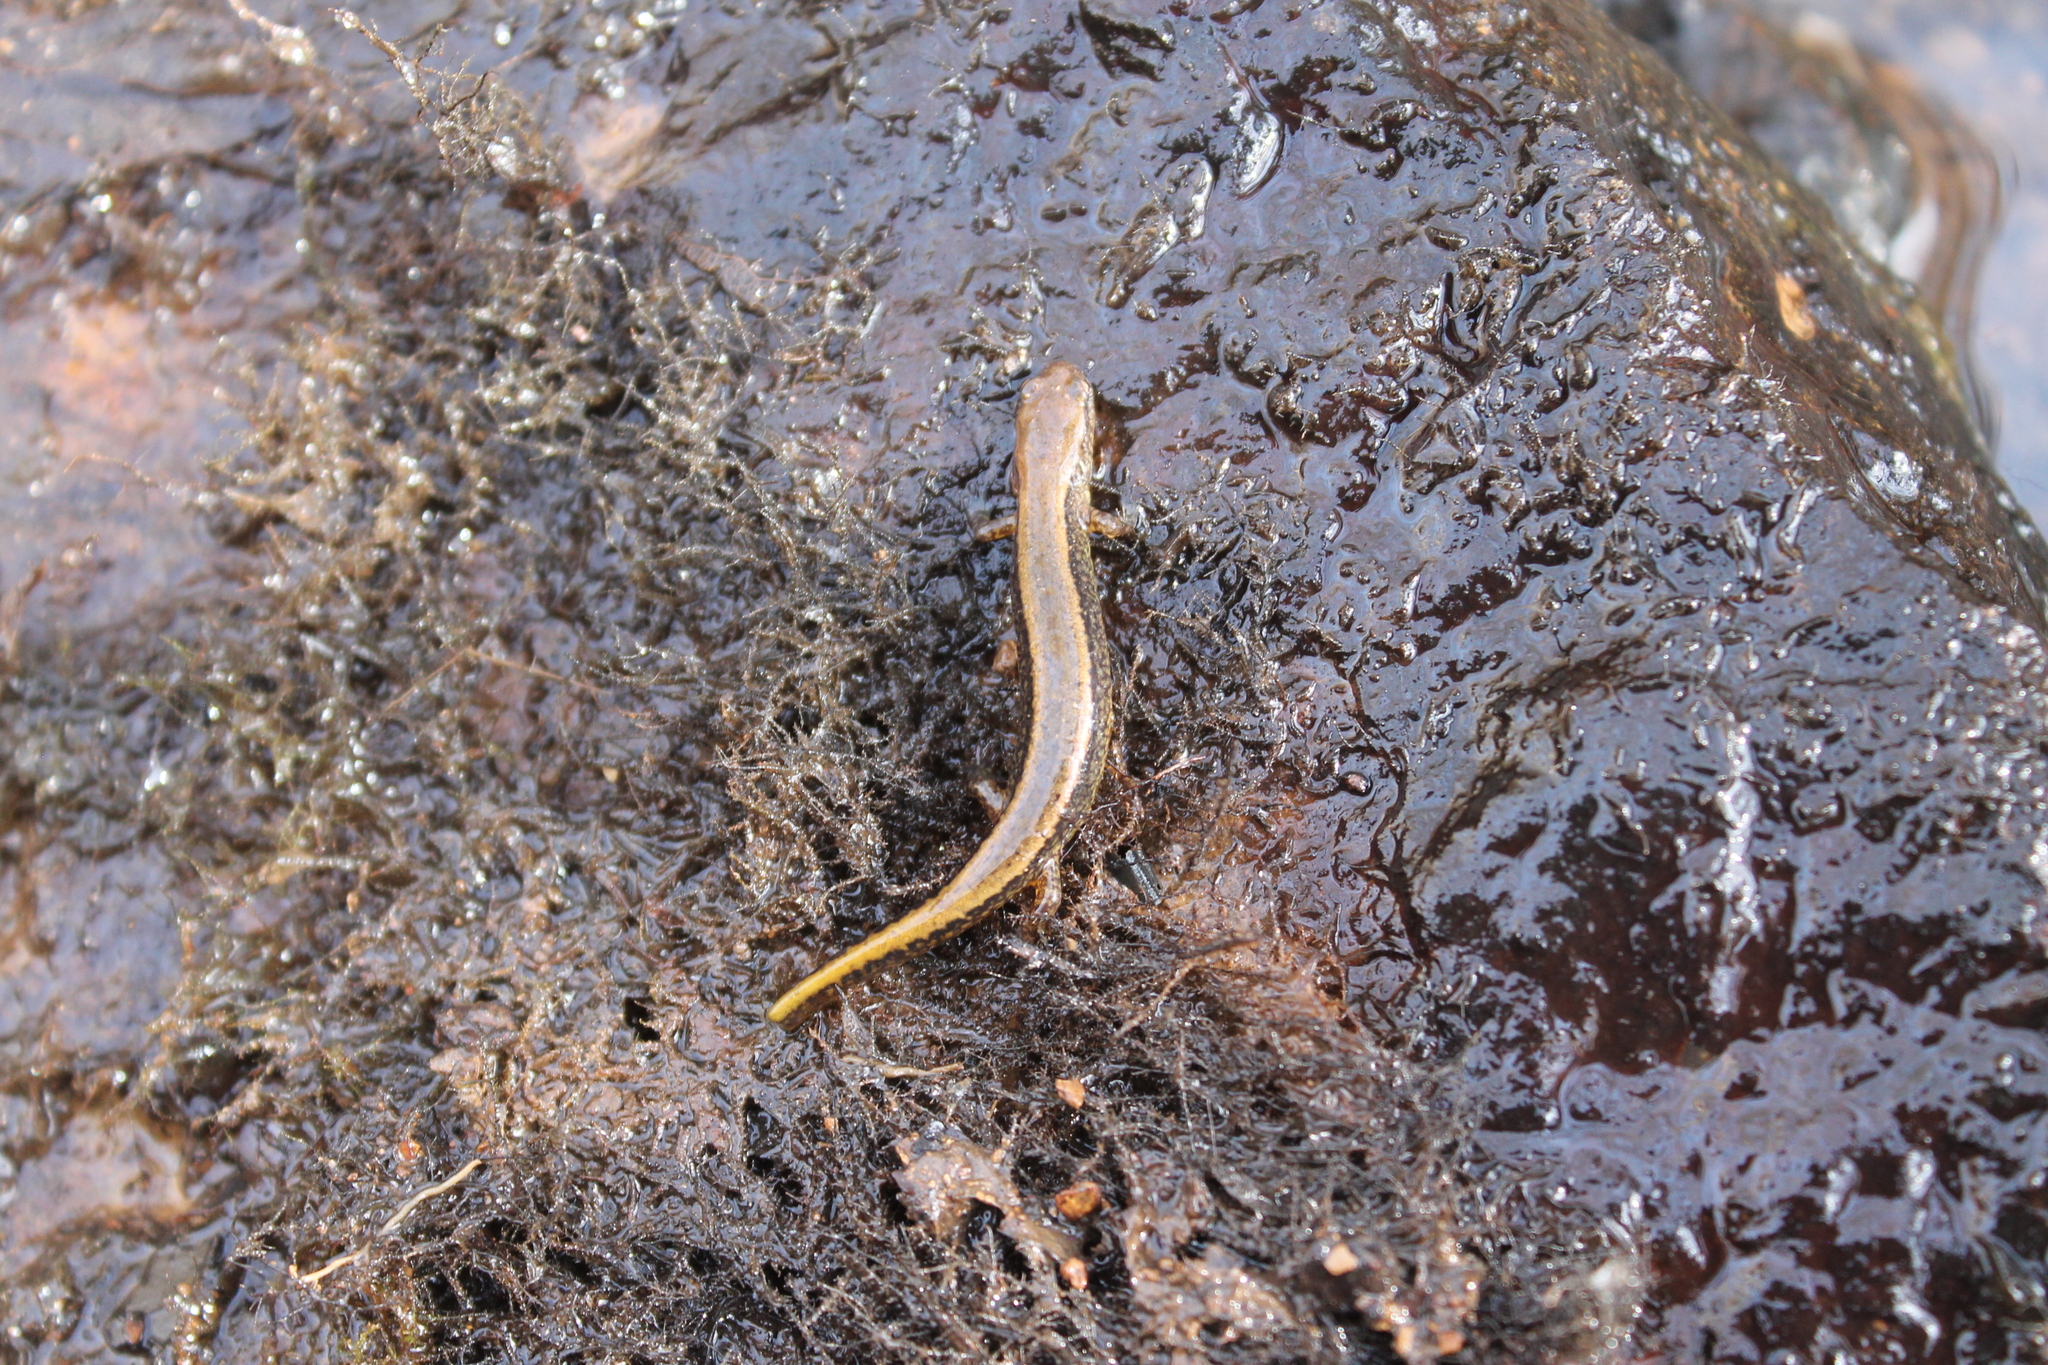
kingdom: Animalia
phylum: Chordata
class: Amphibia
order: Caudata
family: Plethodontidae
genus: Eurycea
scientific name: Eurycea cirrigera
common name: Southern two-lined salamander
